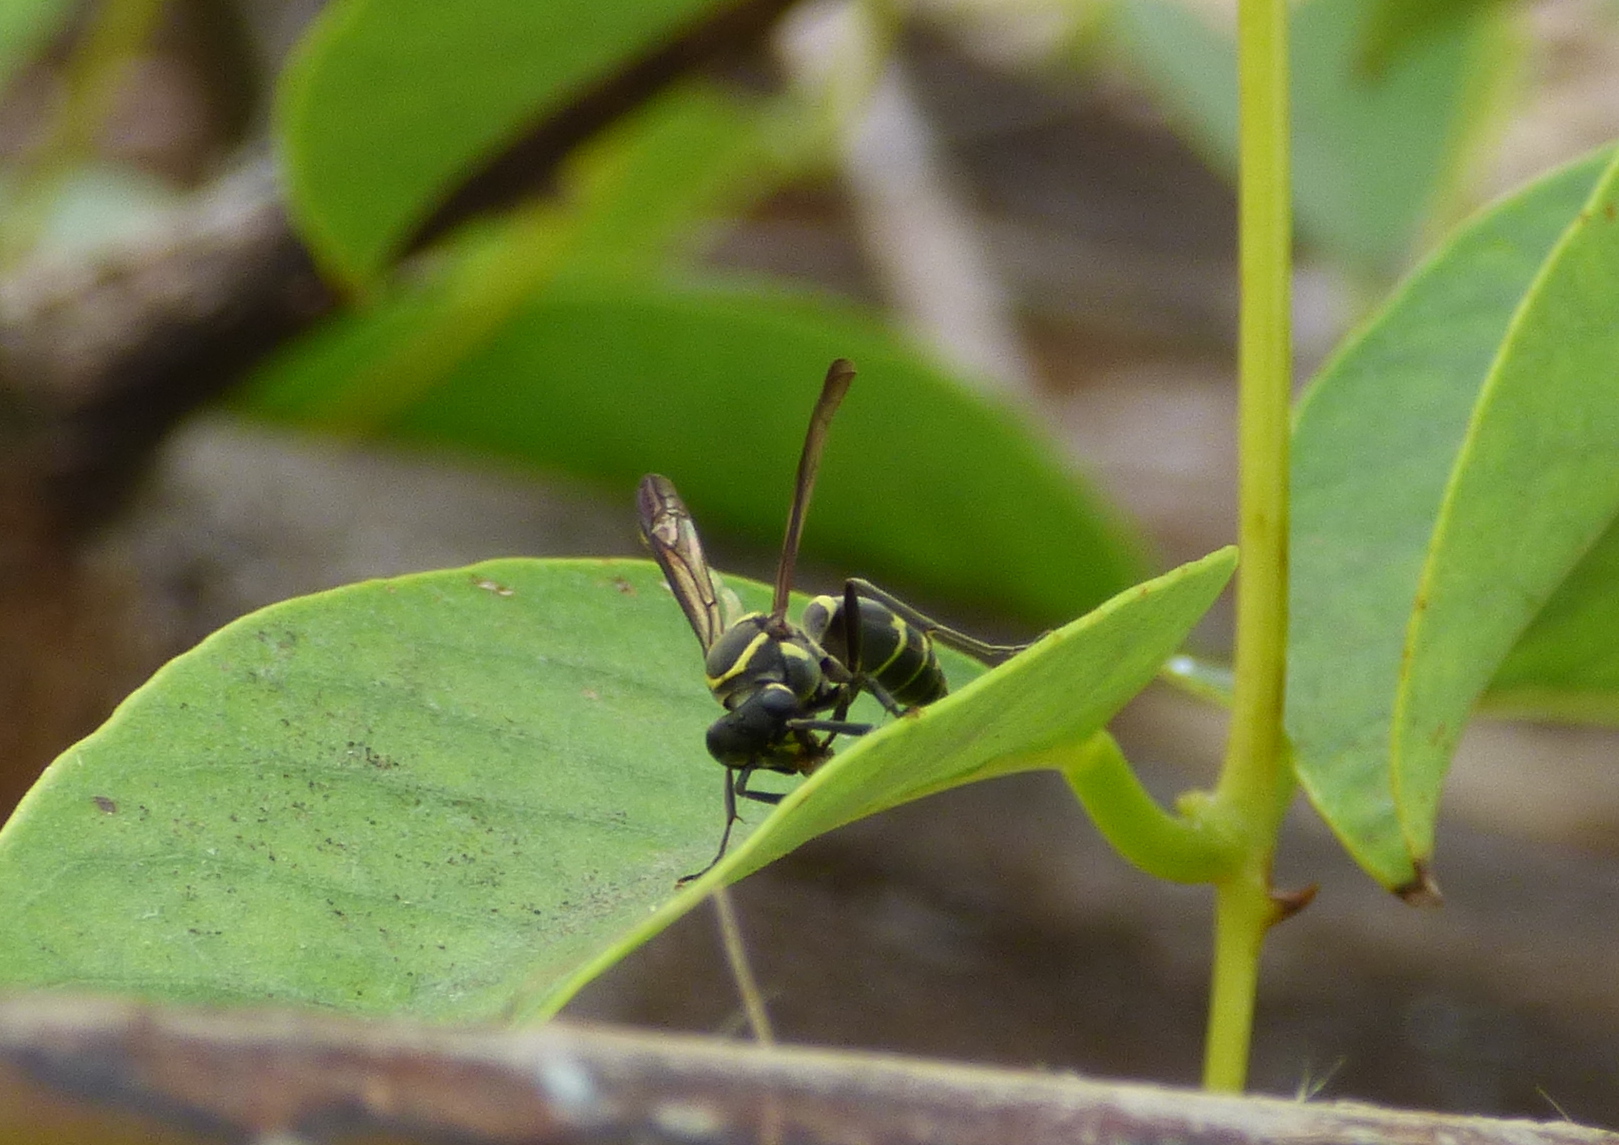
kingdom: Animalia
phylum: Arthropoda
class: Insecta
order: Hymenoptera
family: Eumenidae
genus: Polybia
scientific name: Polybia occidentalis
